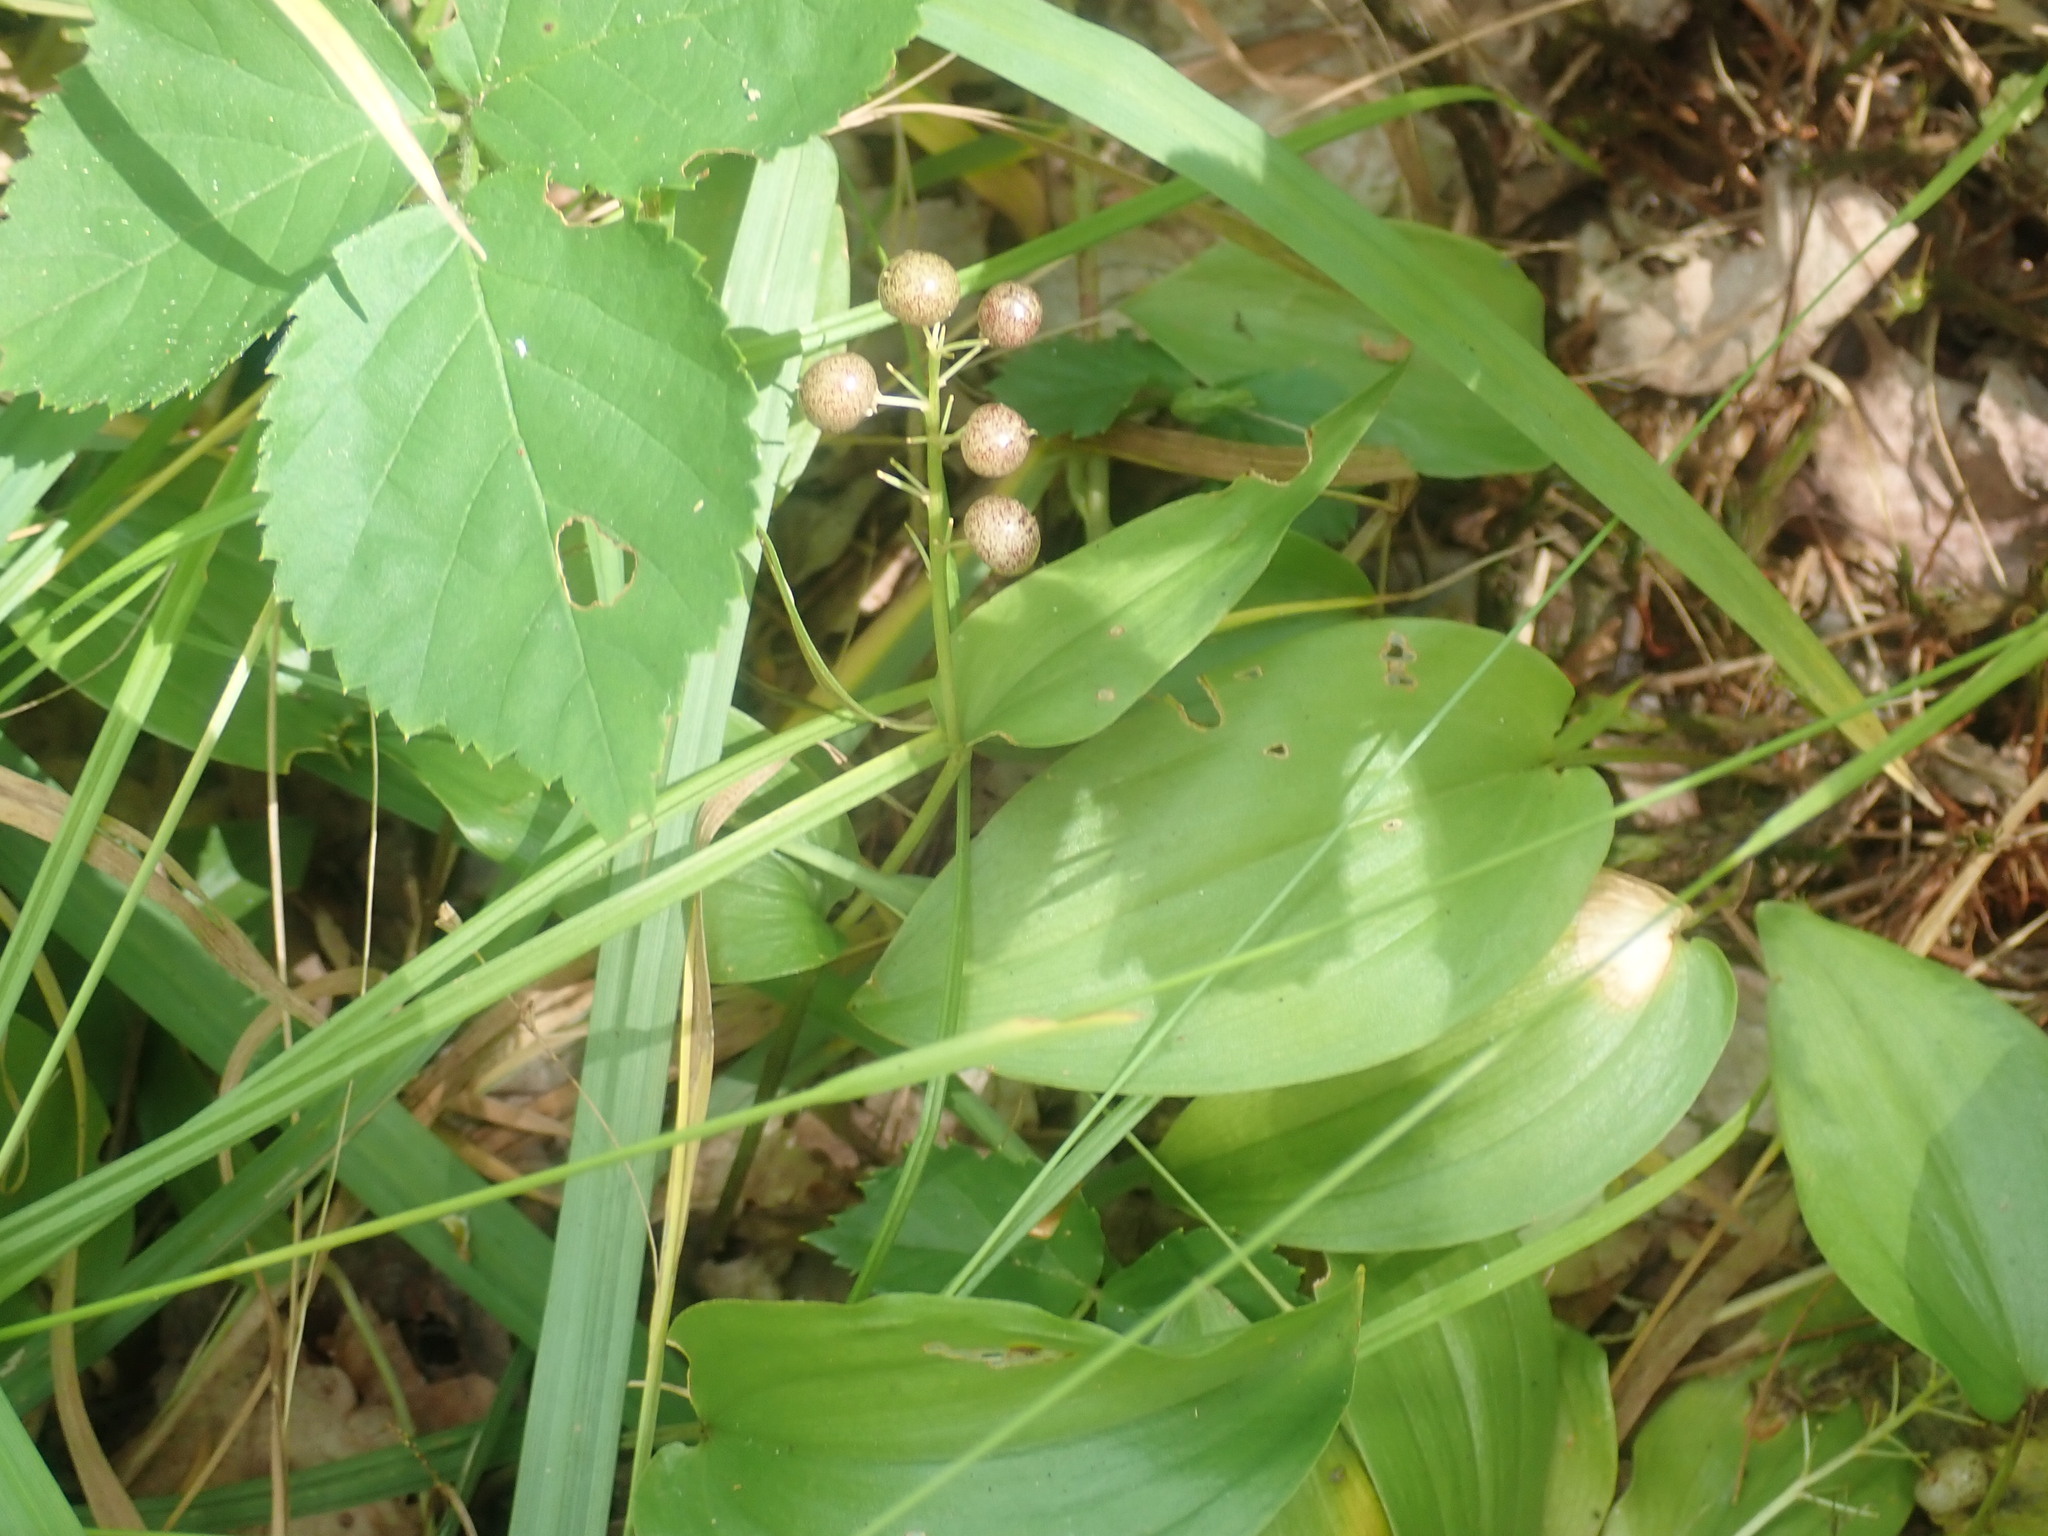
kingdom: Plantae
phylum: Tracheophyta
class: Liliopsida
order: Asparagales
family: Asparagaceae
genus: Maianthemum
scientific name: Maianthemum canadense
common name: False lily-of-the-valley
